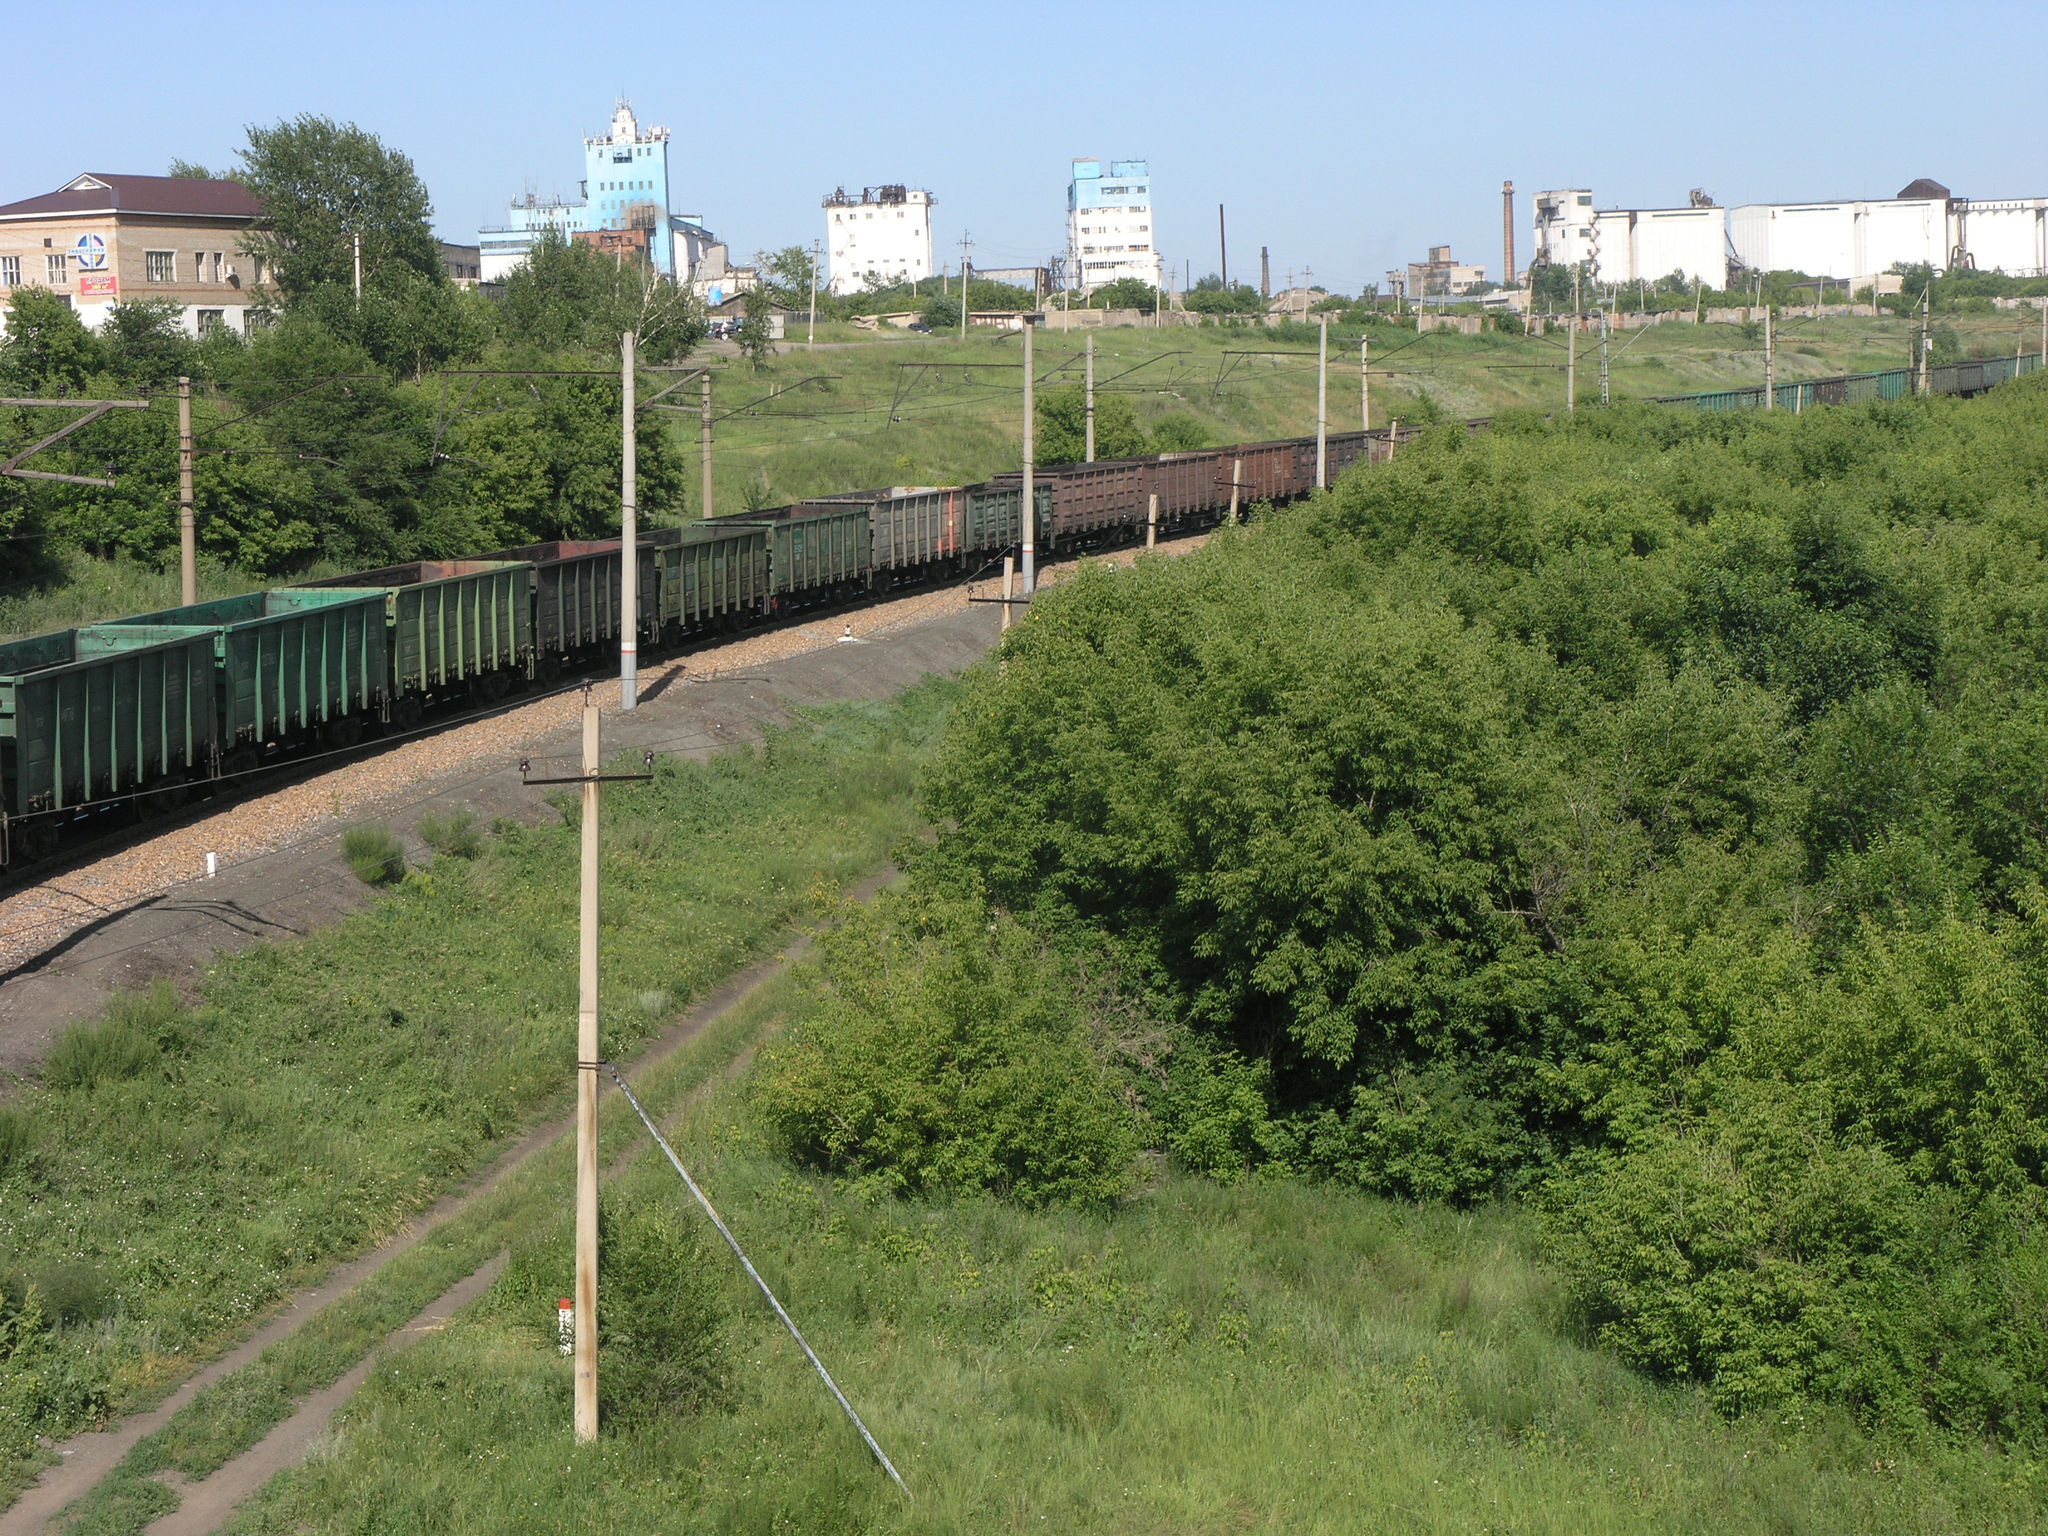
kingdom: Plantae
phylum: Tracheophyta
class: Magnoliopsida
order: Sapindales
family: Sapindaceae
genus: Acer
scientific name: Acer negundo
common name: Ashleaf maple
